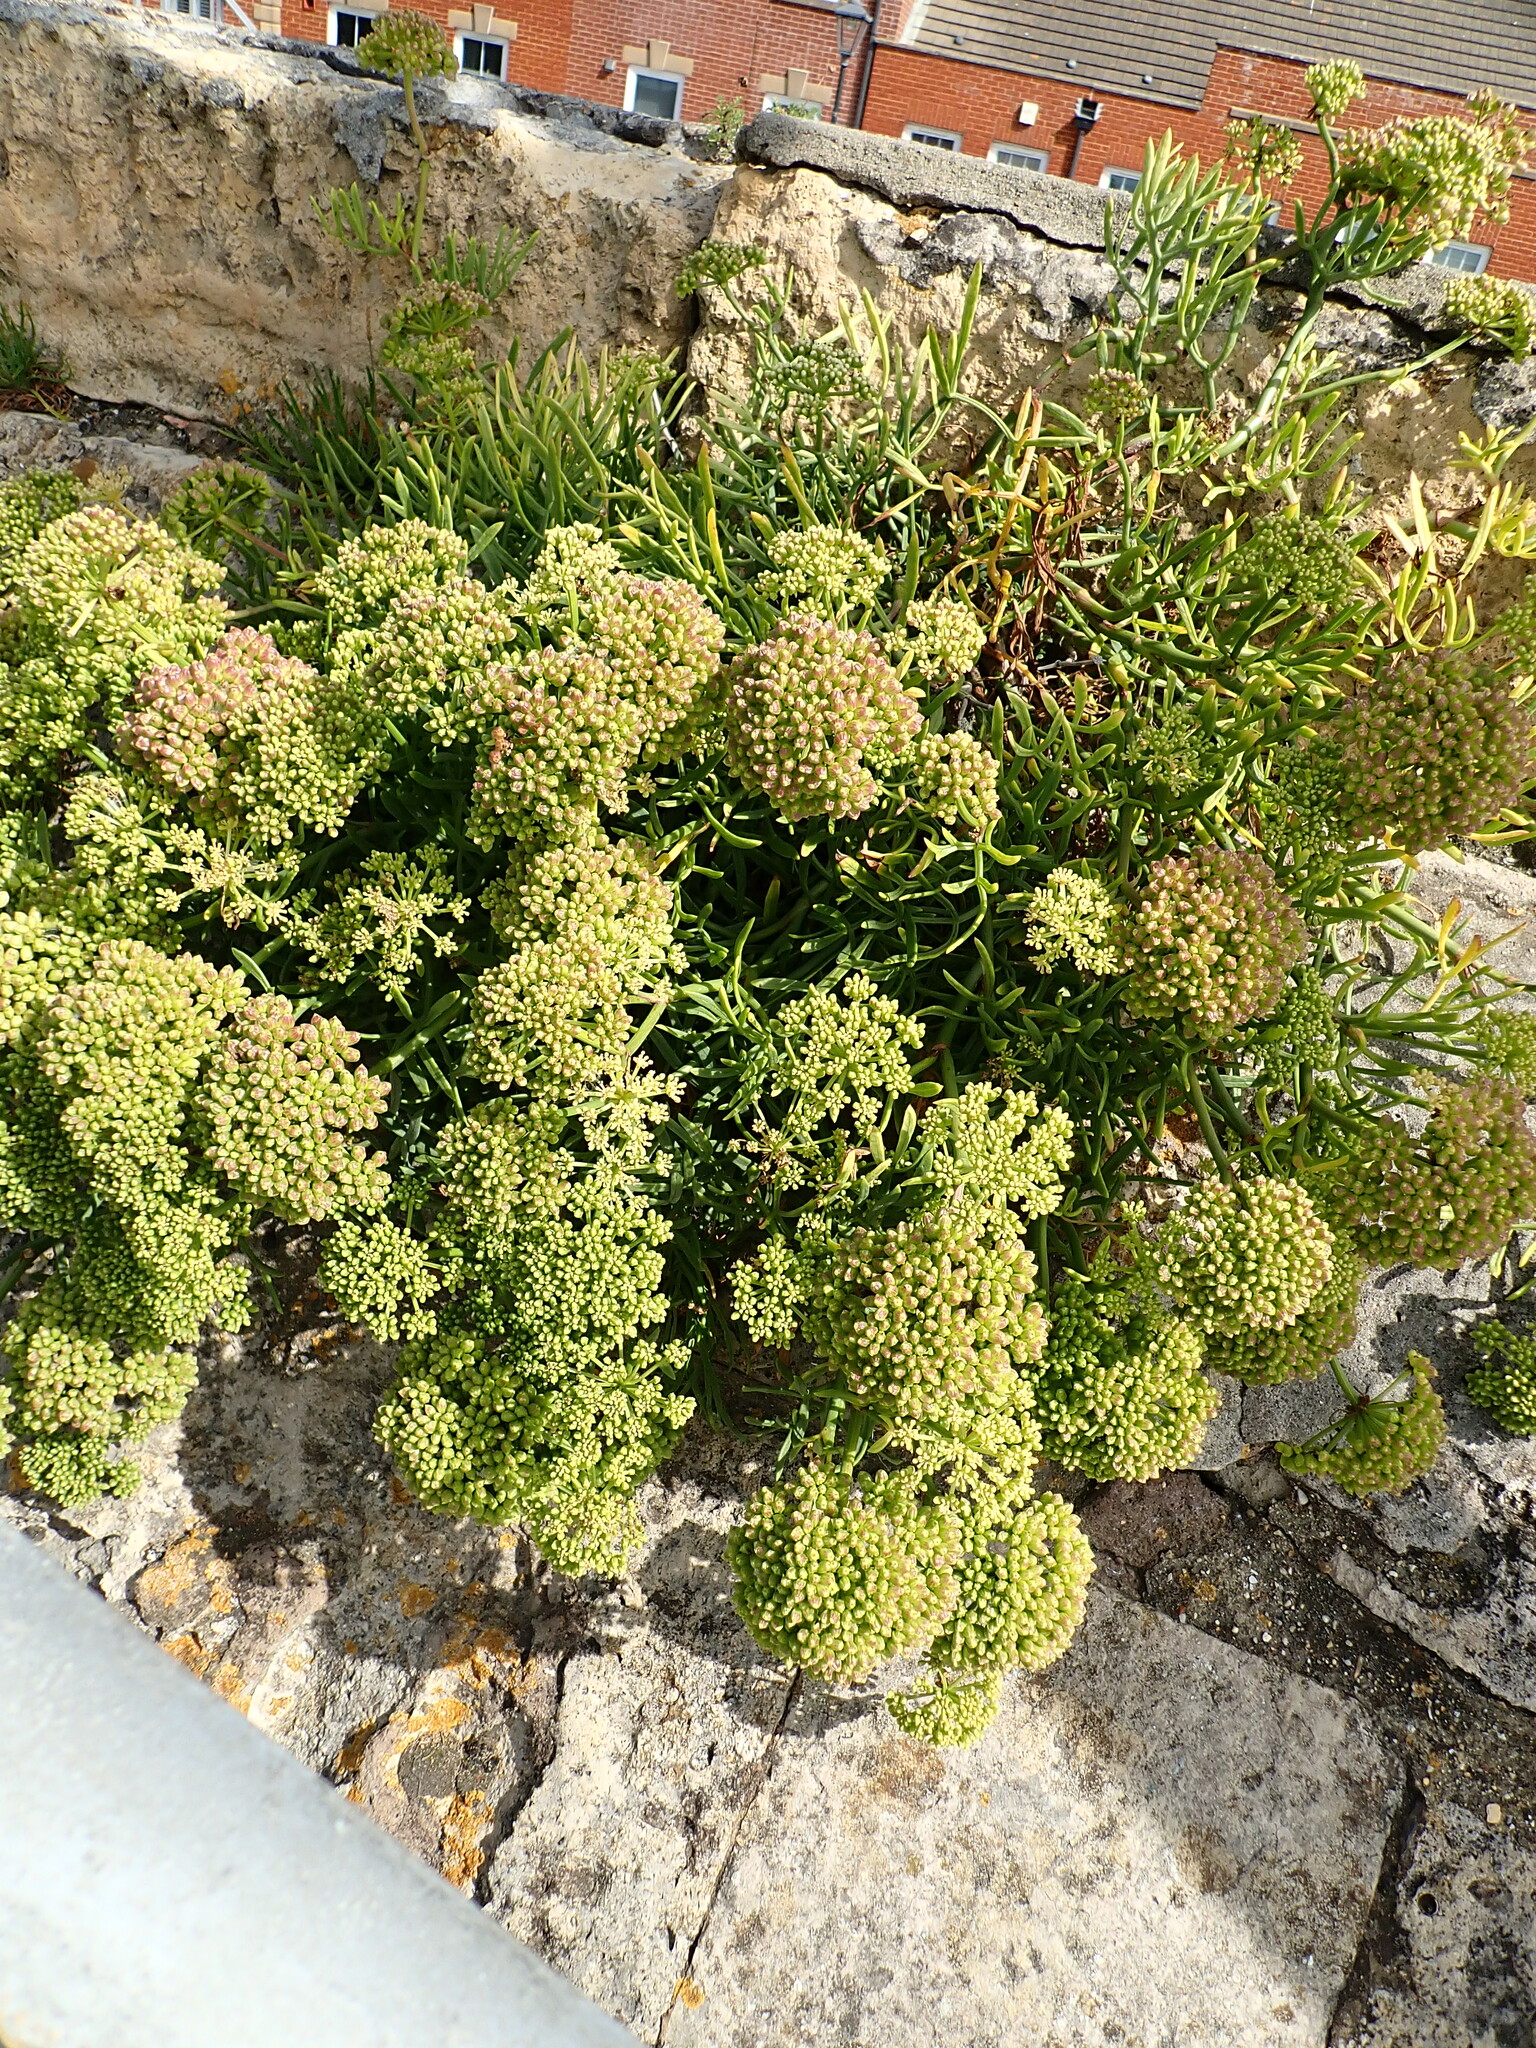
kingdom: Plantae
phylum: Tracheophyta
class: Magnoliopsida
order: Apiales
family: Apiaceae
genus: Crithmum
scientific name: Crithmum maritimum
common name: Rock samphire
